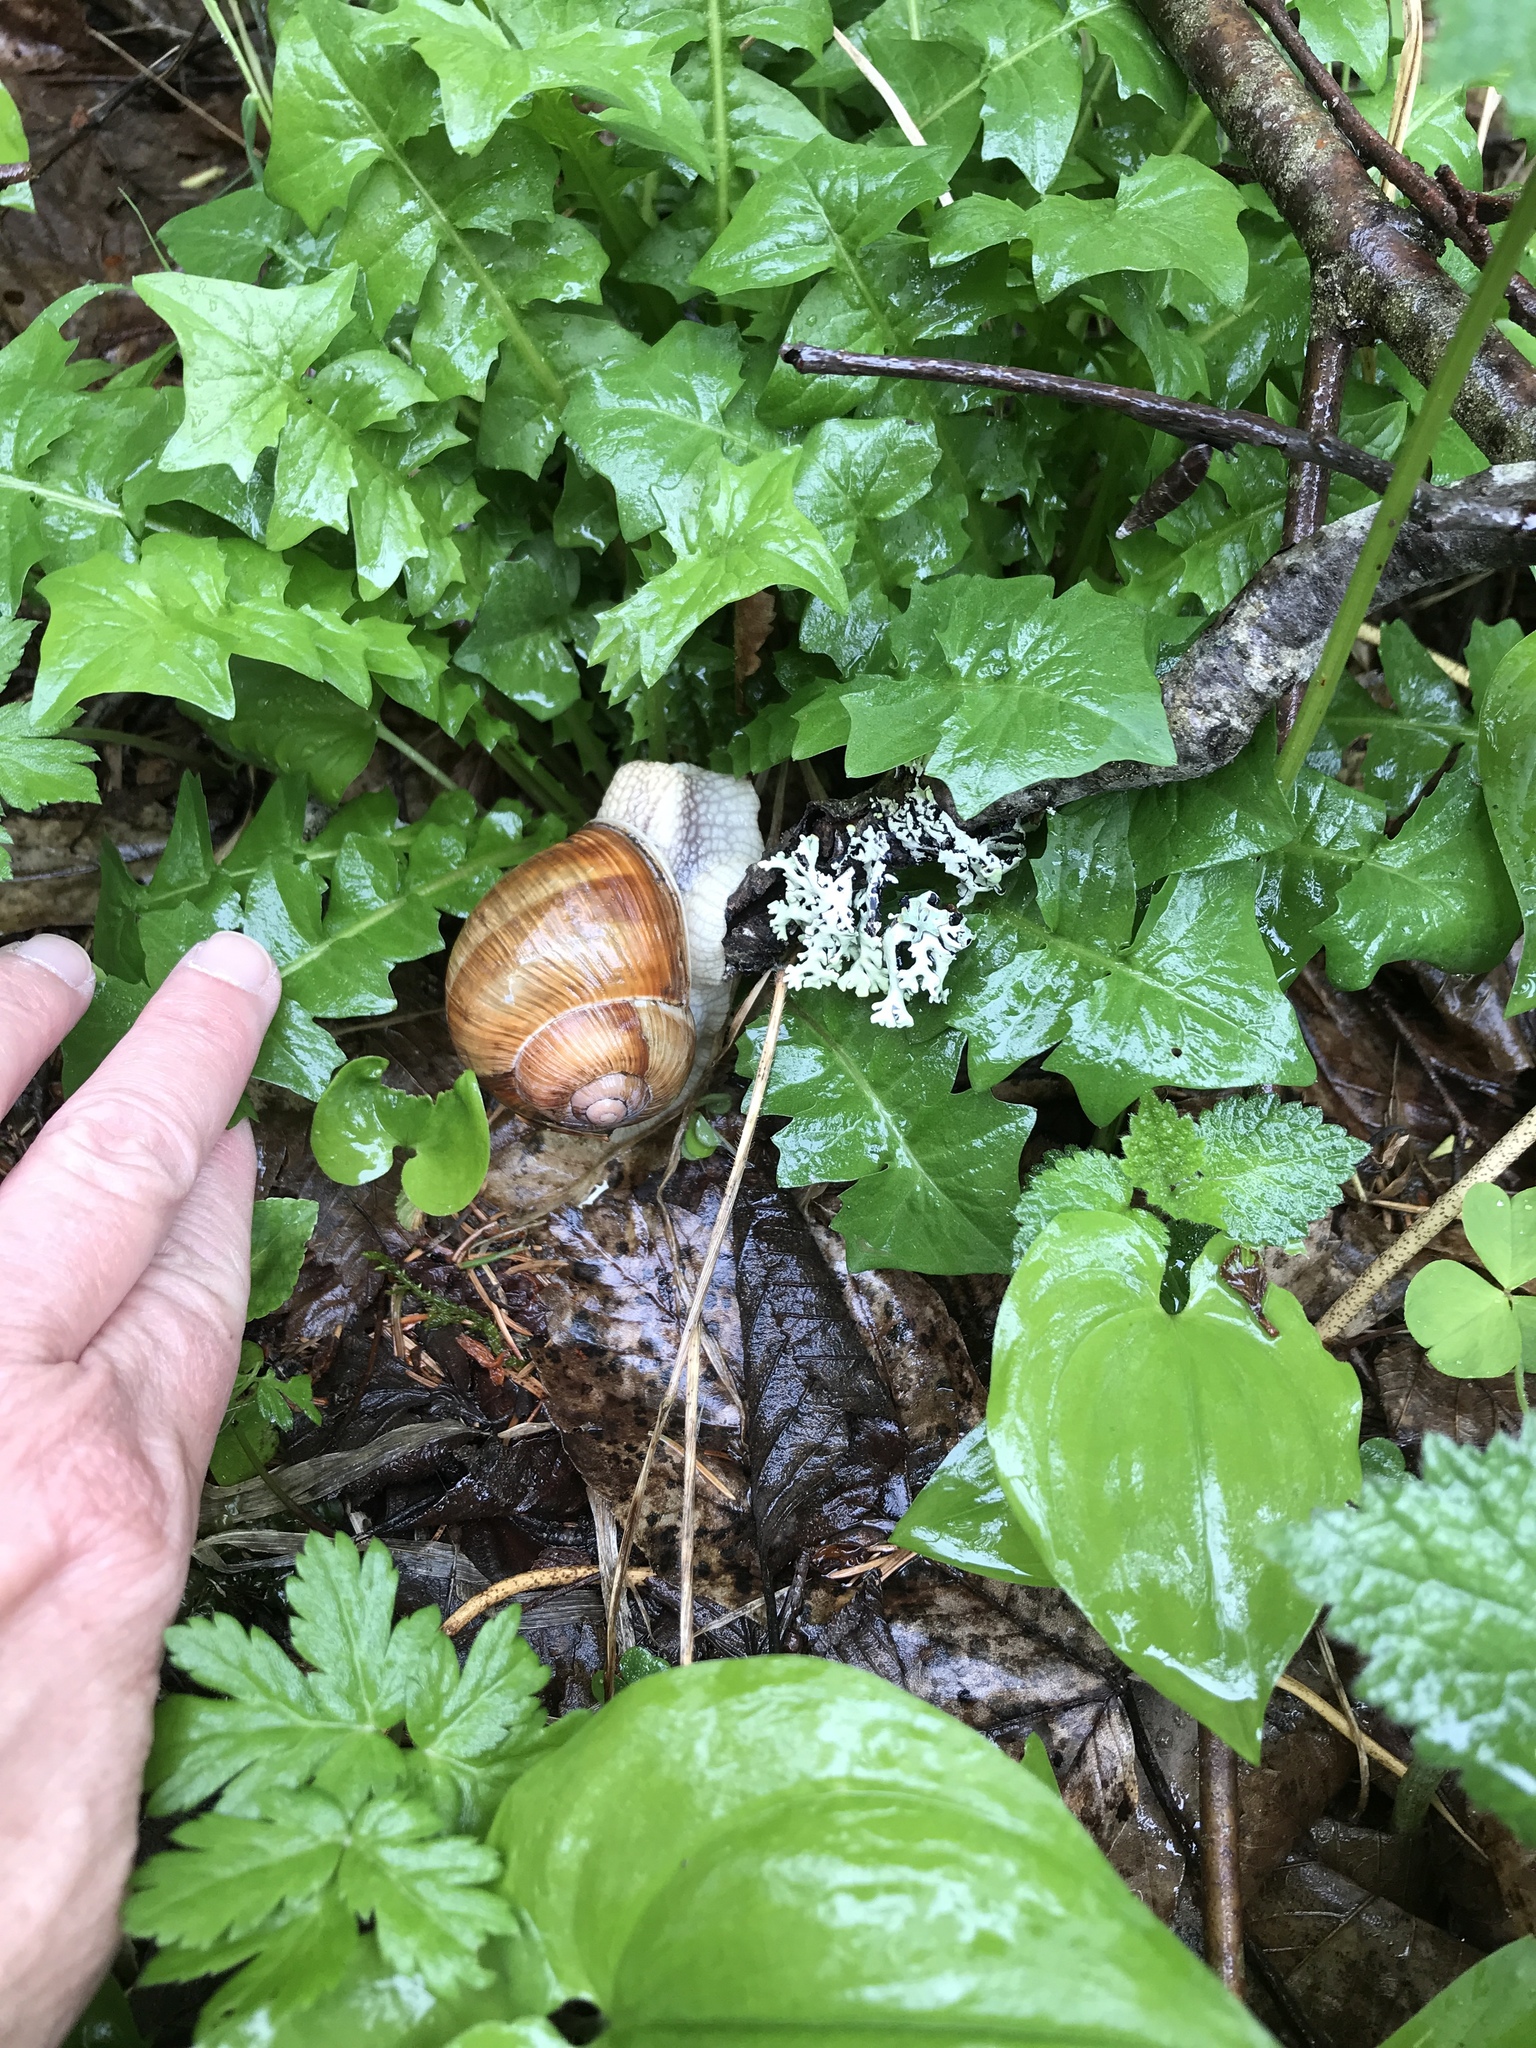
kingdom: Animalia
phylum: Mollusca
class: Gastropoda
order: Stylommatophora
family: Helicidae
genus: Helix
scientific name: Helix pomatia
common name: Roman snail
